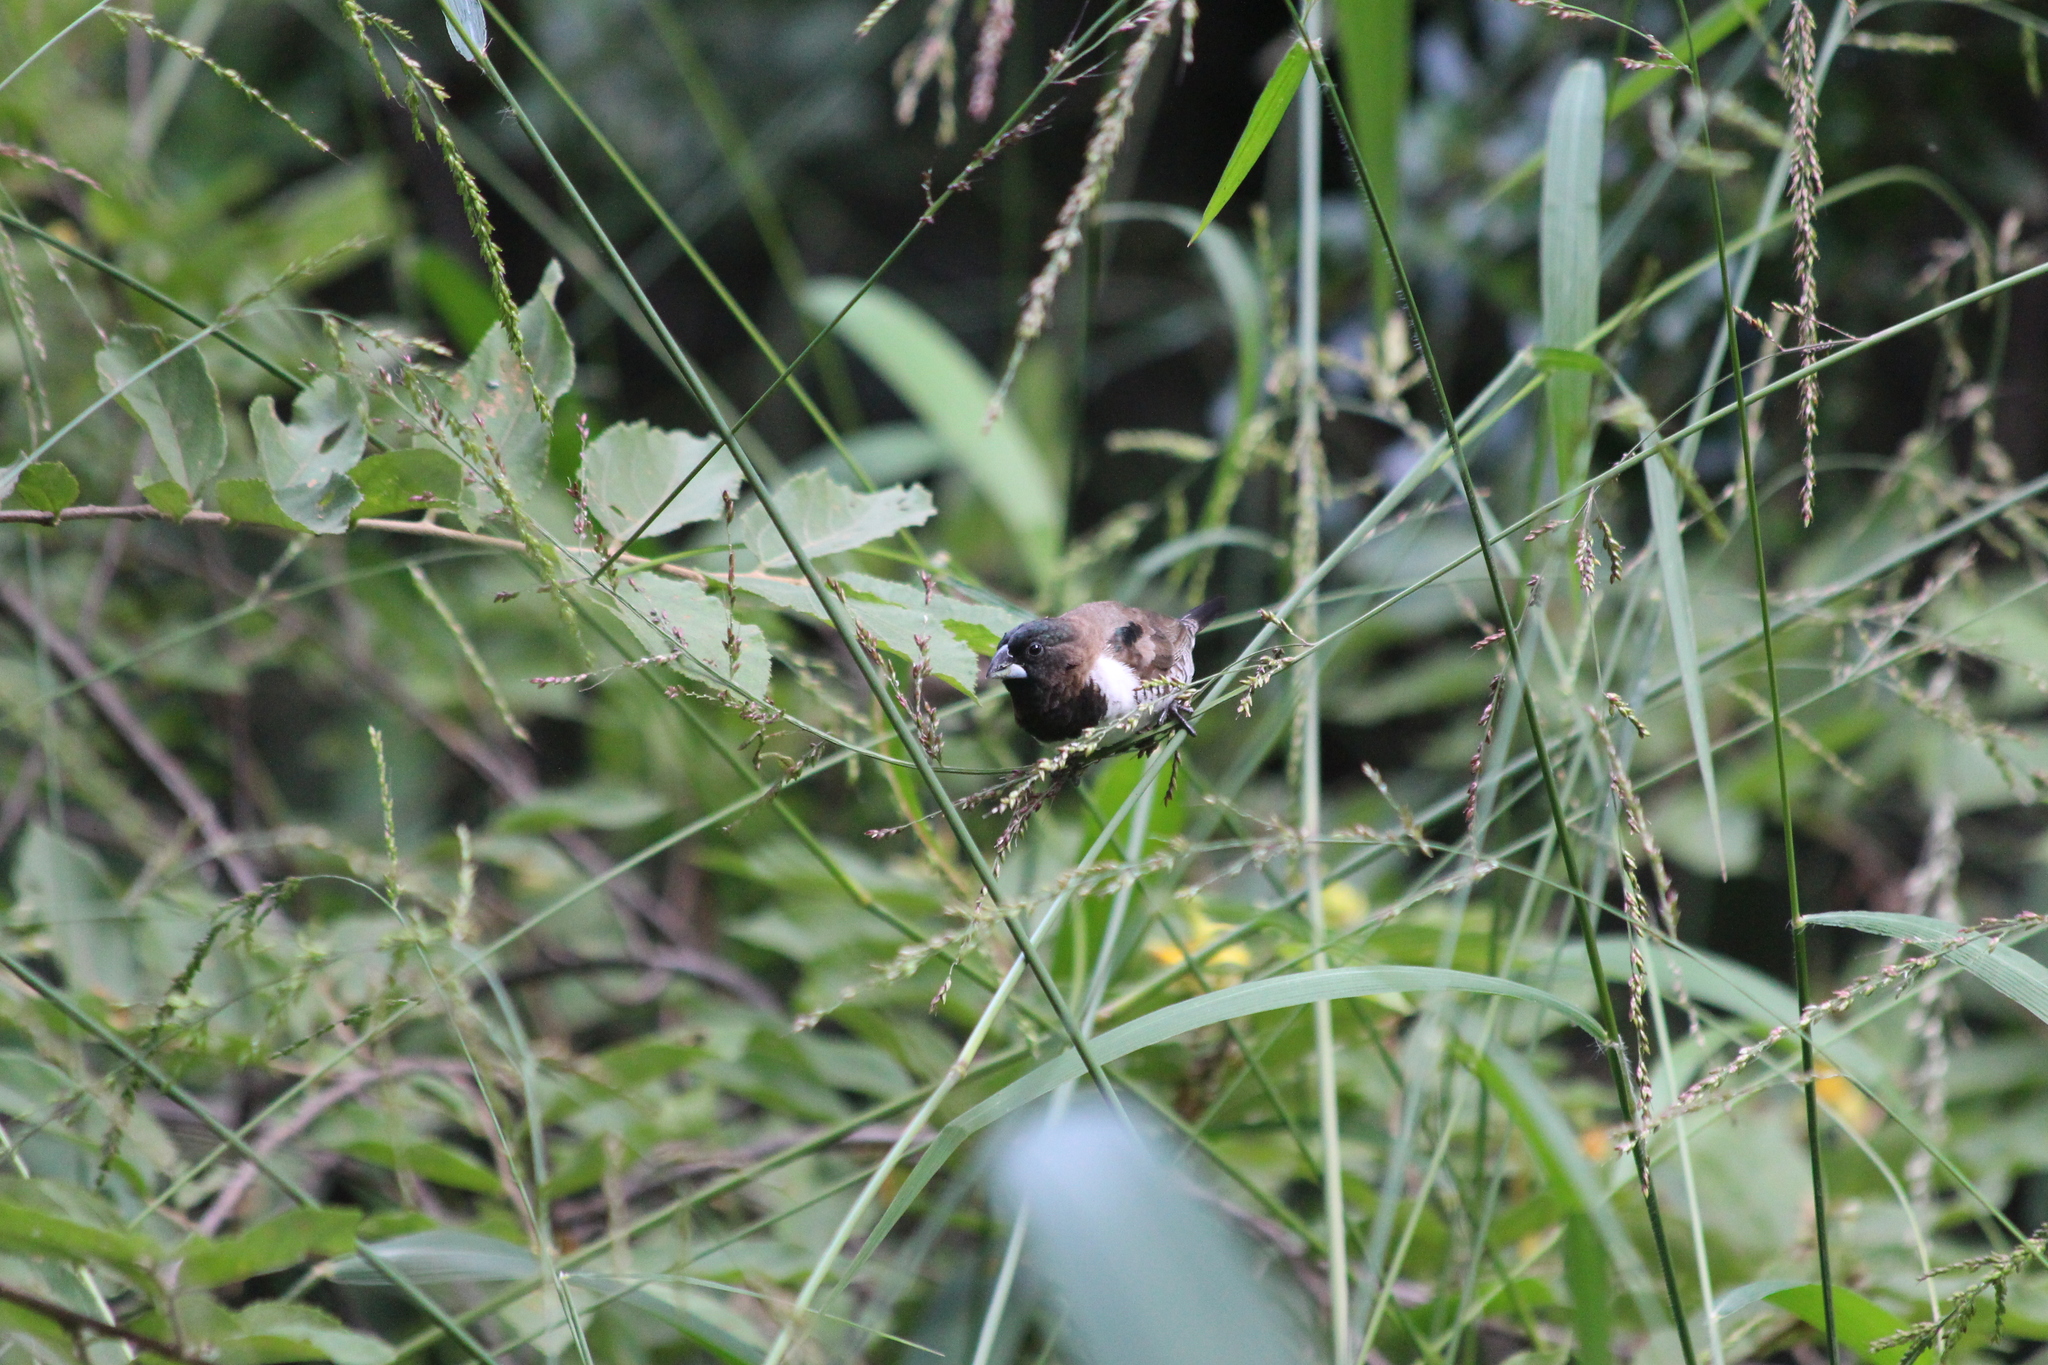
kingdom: Animalia
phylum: Chordata
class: Aves
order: Passeriformes
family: Estrildidae
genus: Lonchura
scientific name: Lonchura cucullata
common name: Bronze mannikin
